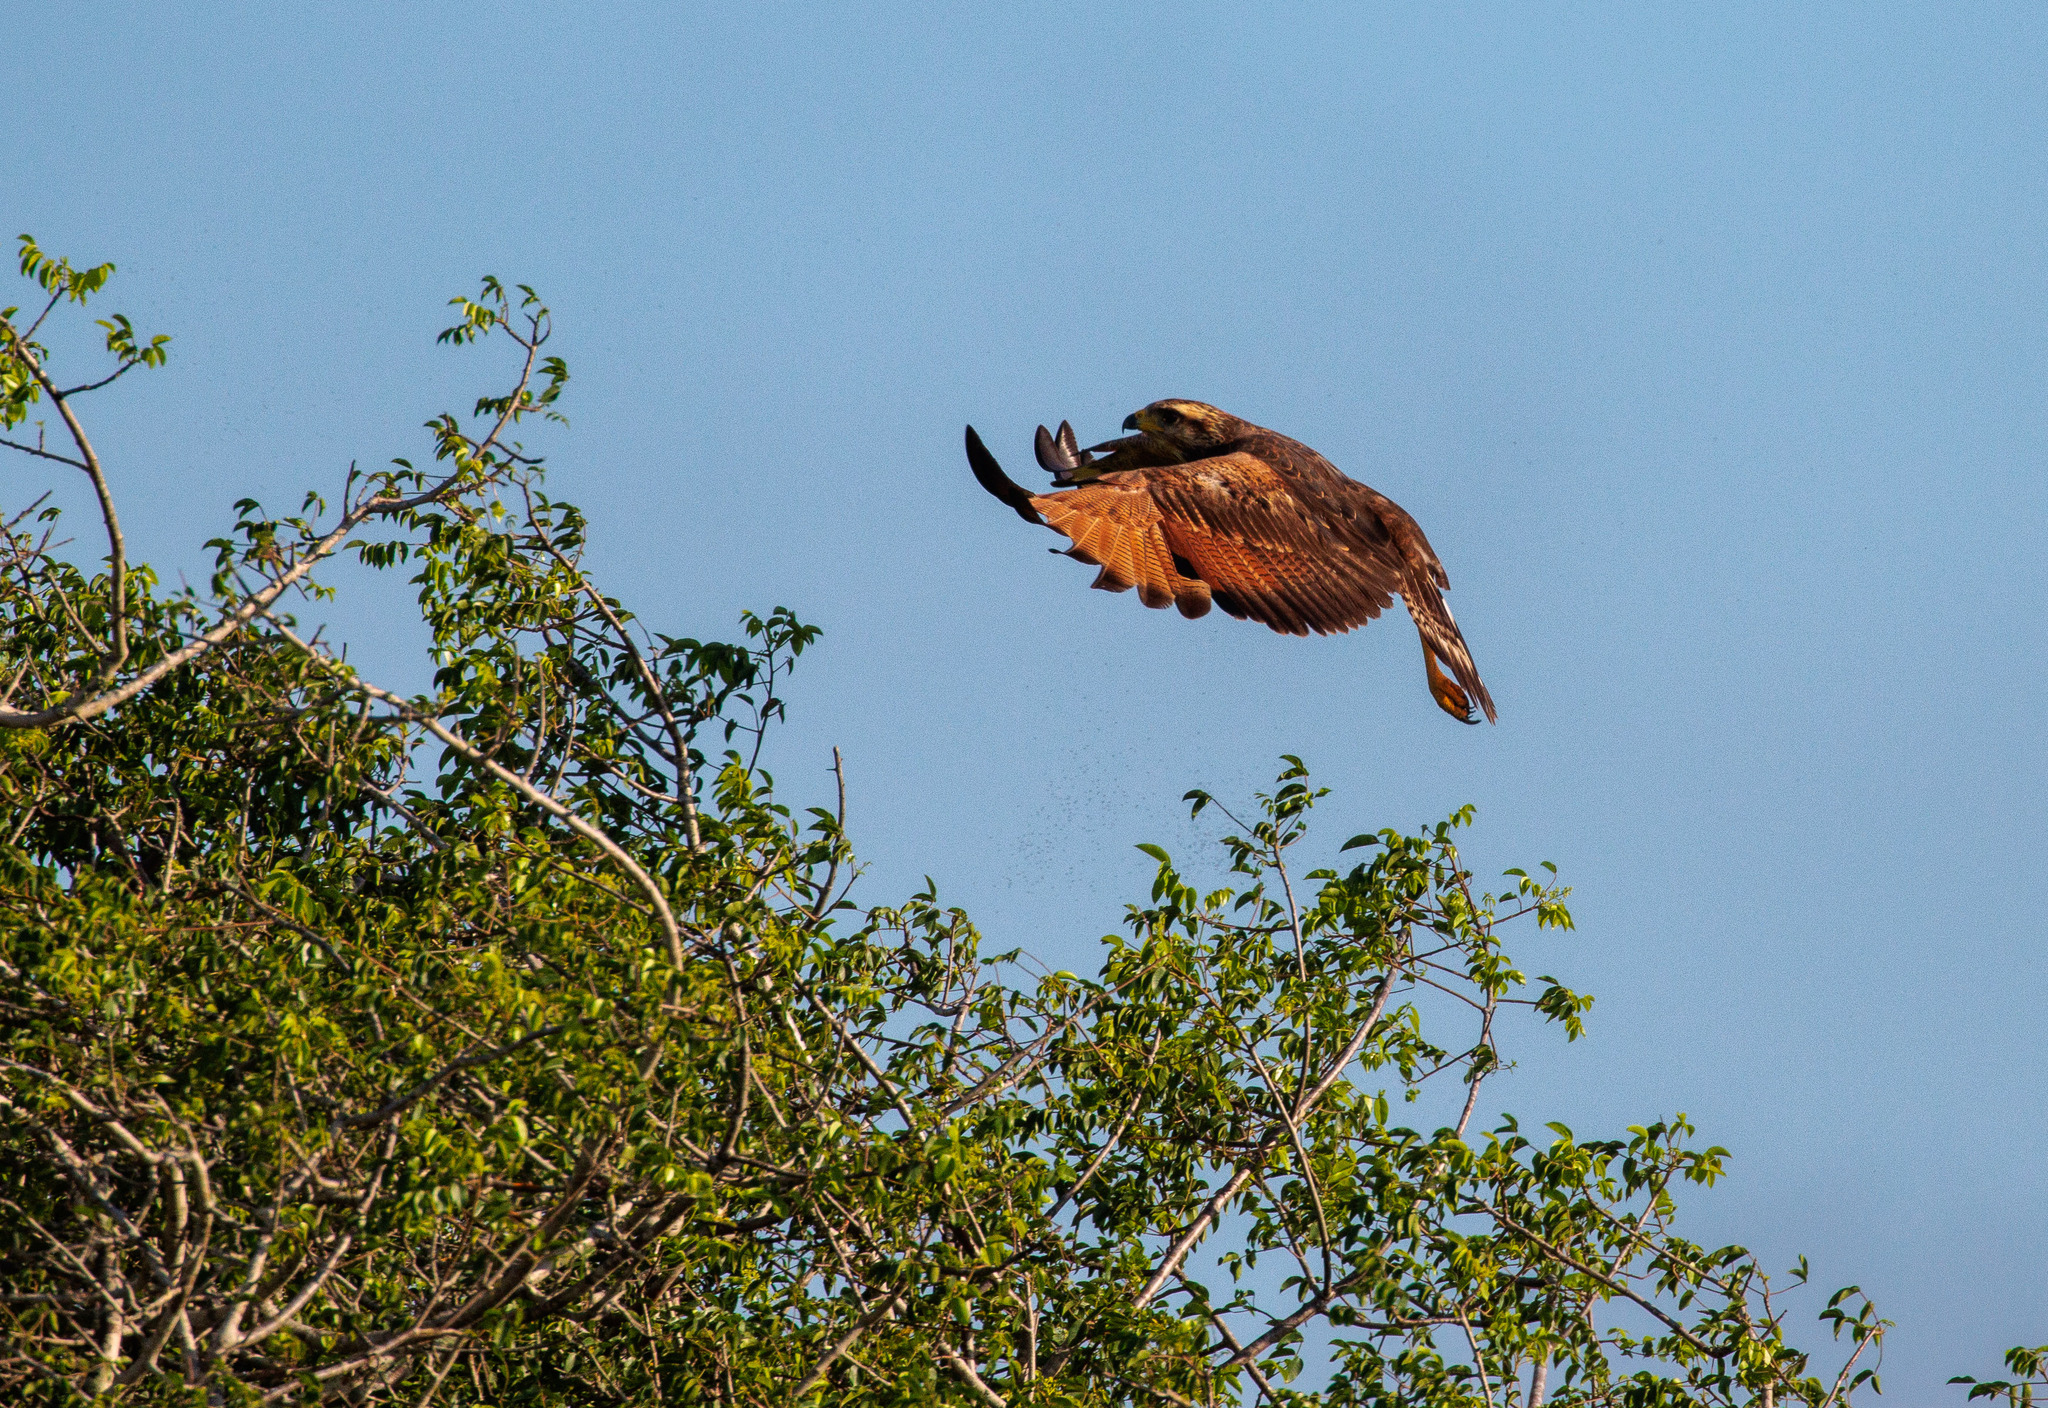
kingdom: Animalia
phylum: Chordata
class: Aves
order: Accipitriformes
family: Accipitridae
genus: Buteogallus
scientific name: Buteogallus meridionalis
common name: Savanna hawk
